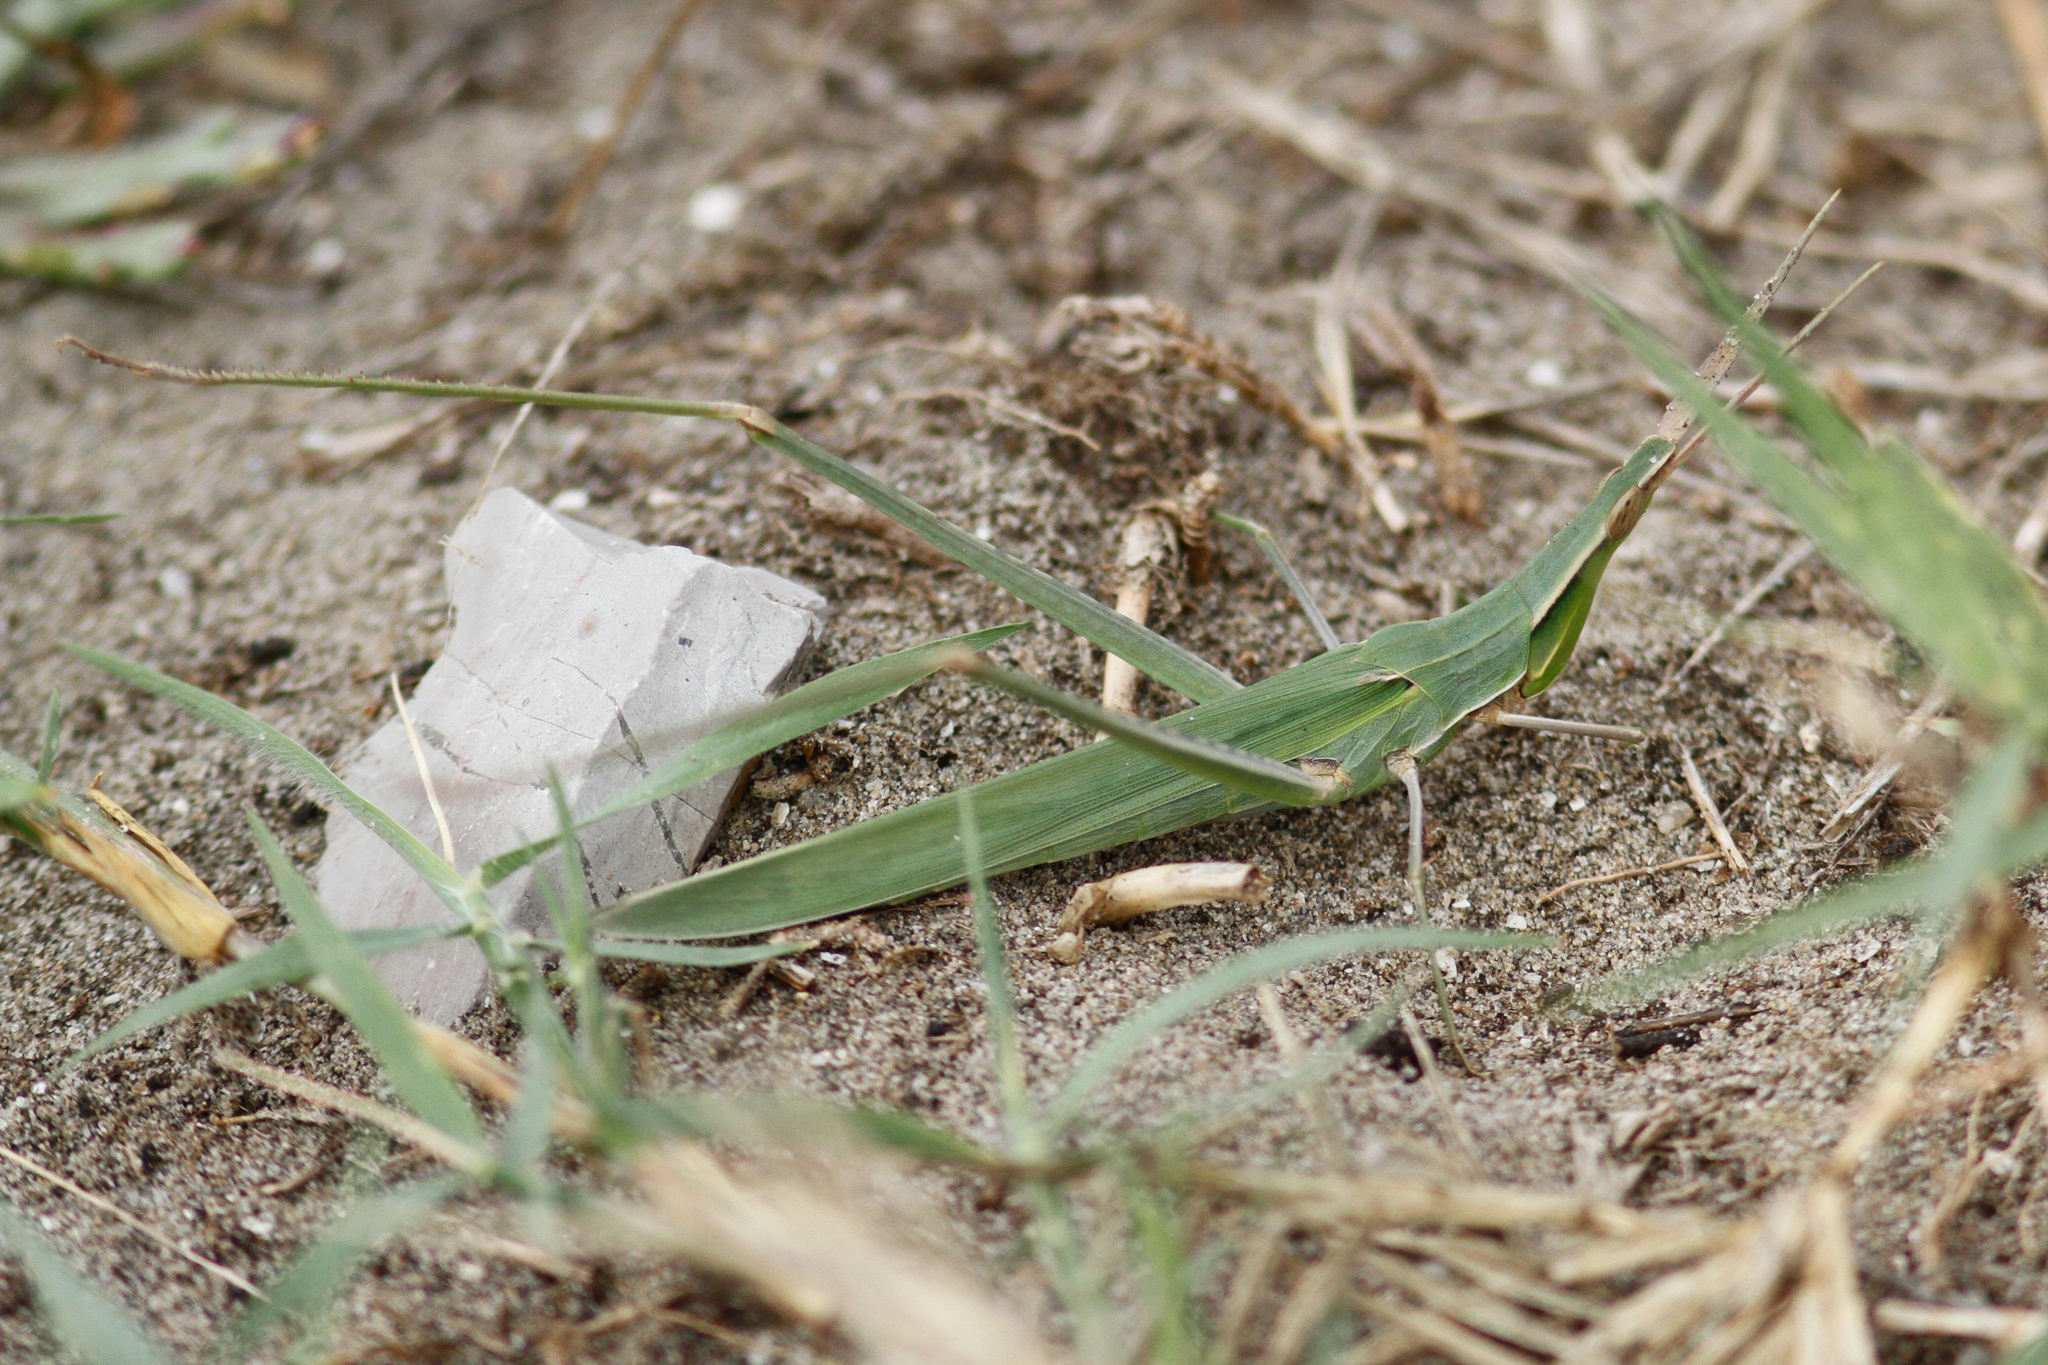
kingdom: Animalia
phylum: Arthropoda
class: Insecta
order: Orthoptera
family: Acrididae
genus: Acrida
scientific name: Acrida ungarica
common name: Common cone-headed grasshopper
